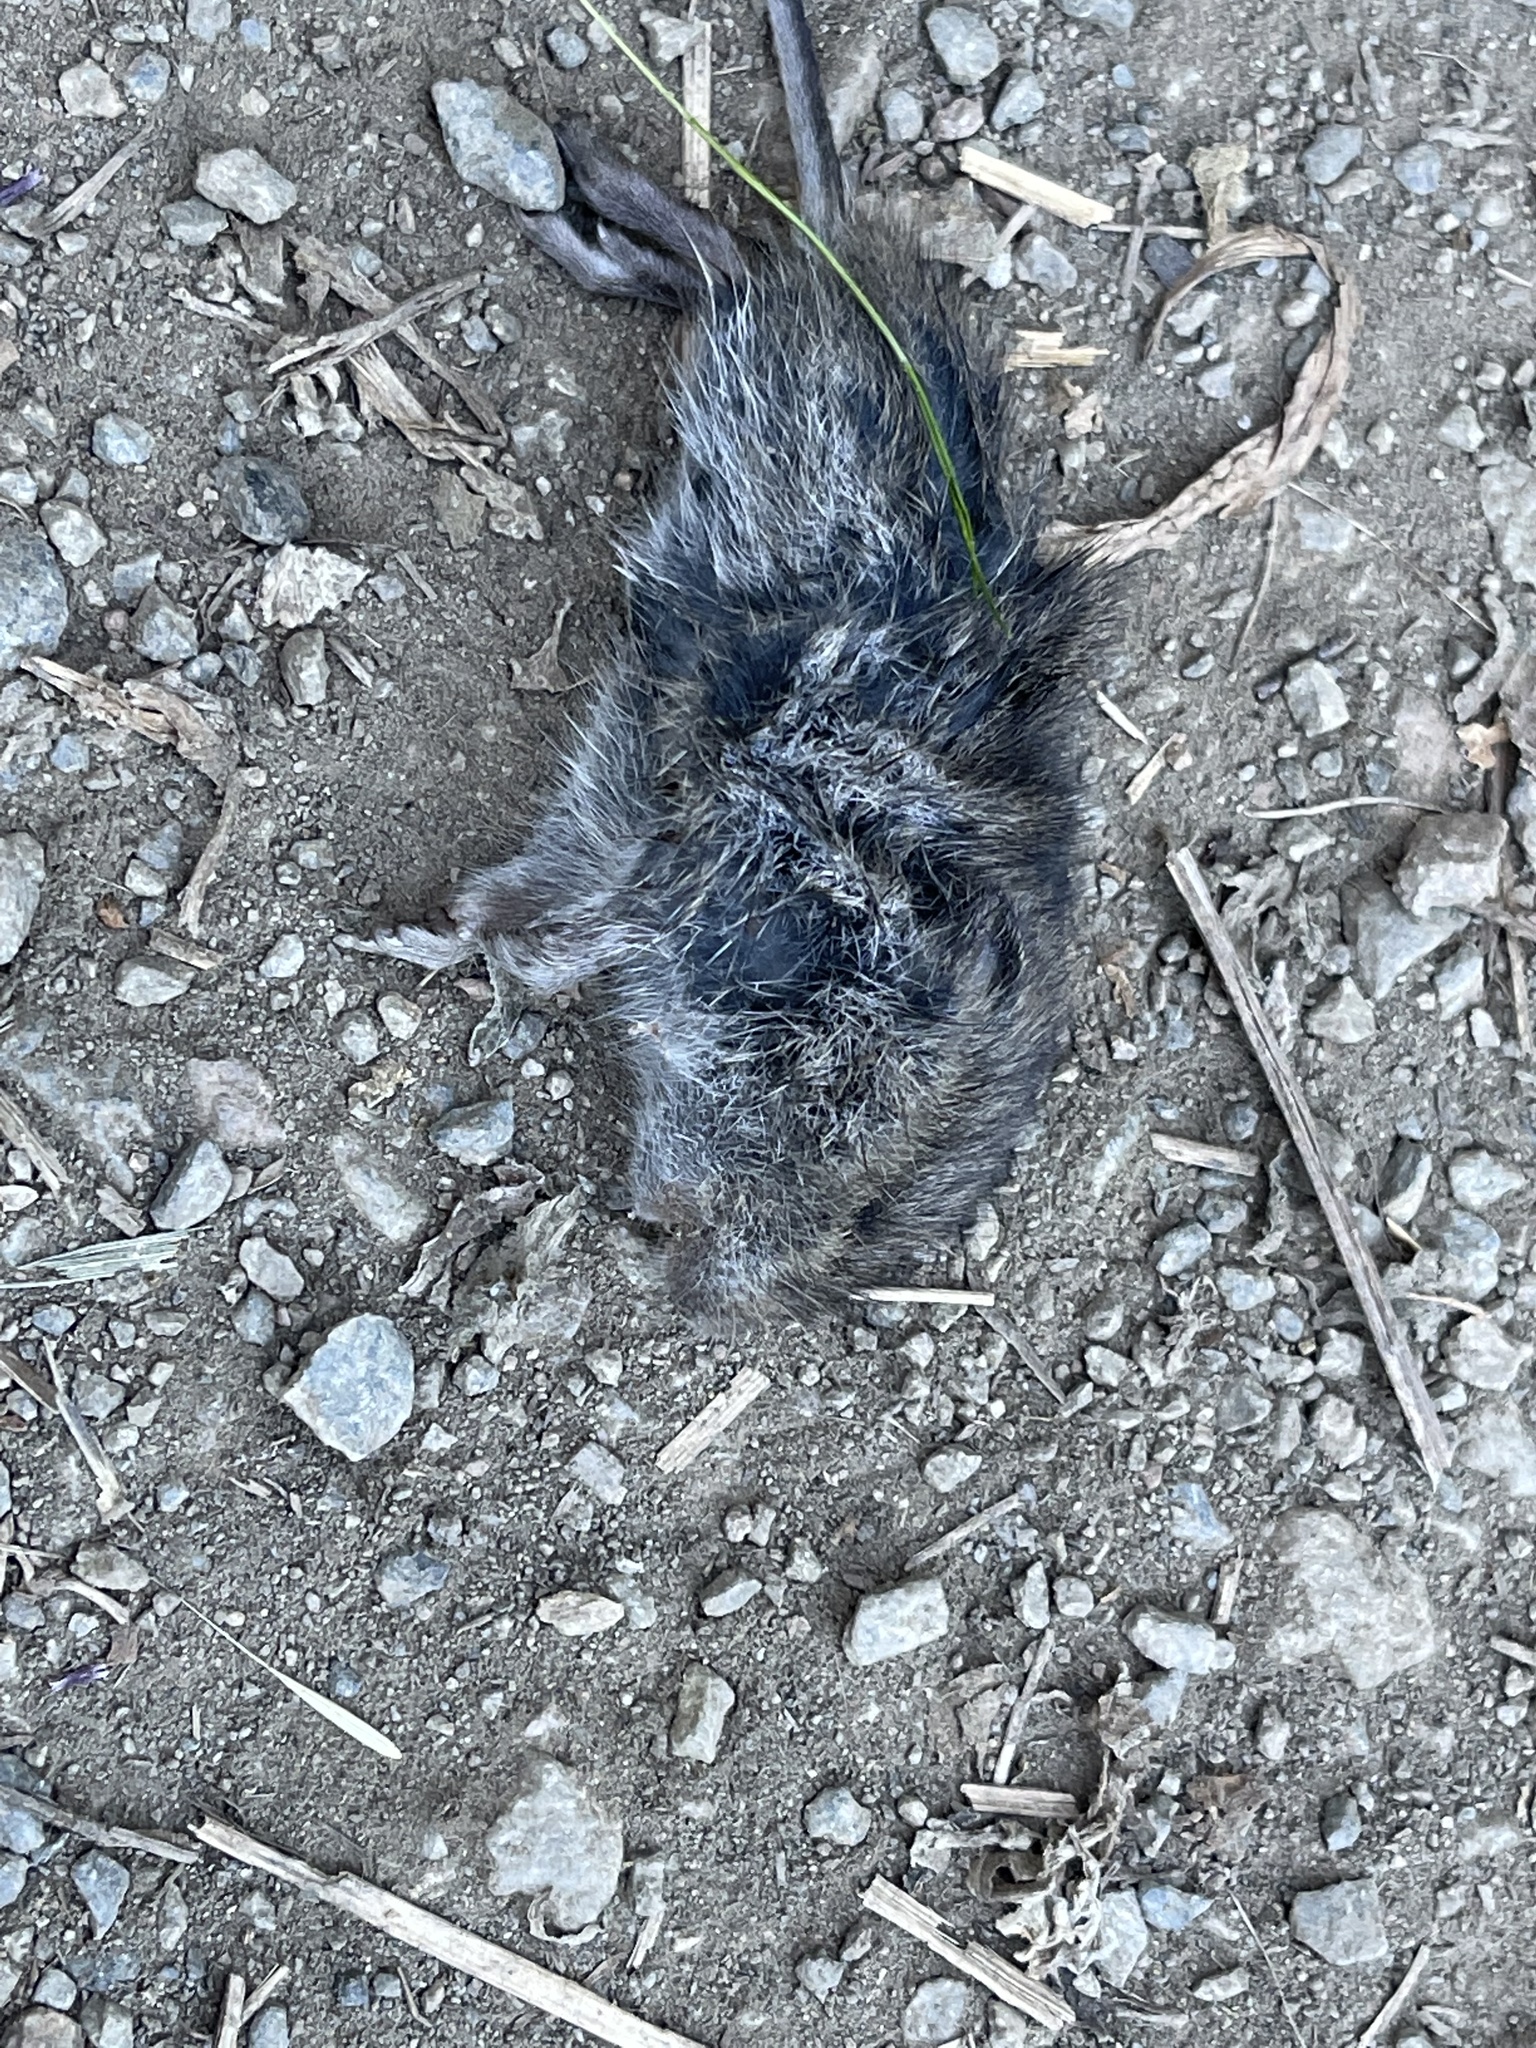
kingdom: Animalia
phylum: Chordata
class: Mammalia
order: Rodentia
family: Cricetidae
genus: Microtus
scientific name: Microtus californicus
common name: California vole
